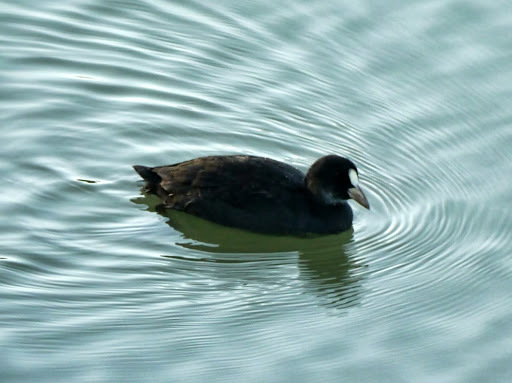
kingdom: Animalia
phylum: Chordata
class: Aves
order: Gruiformes
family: Rallidae
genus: Fulica
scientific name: Fulica atra
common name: Eurasian coot
